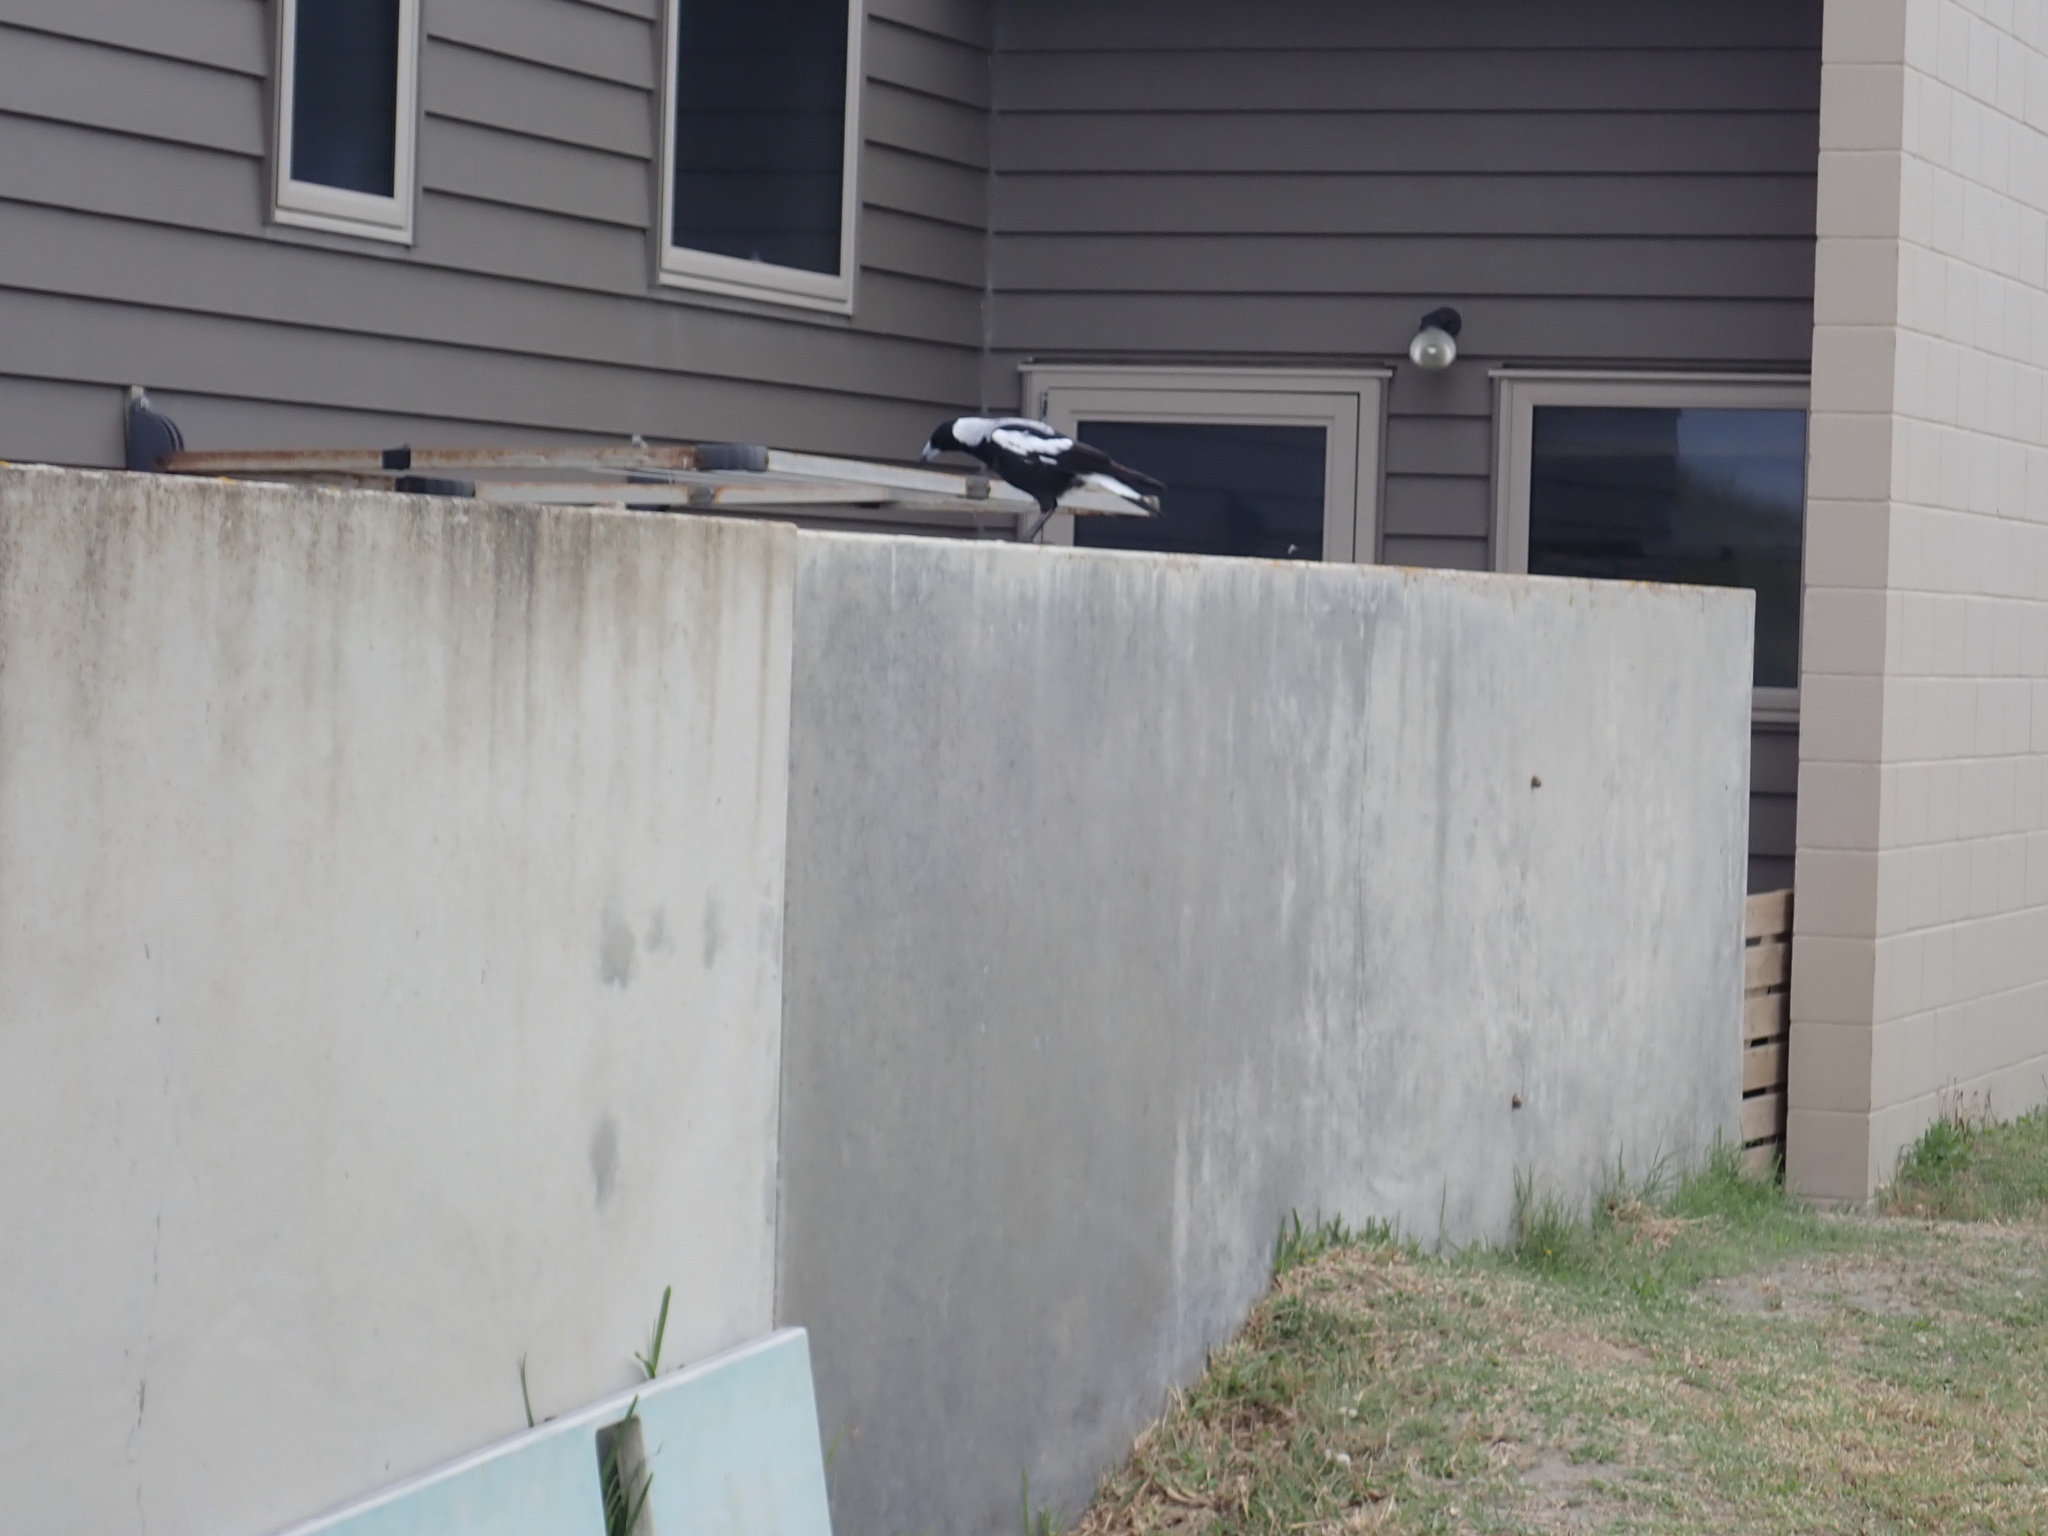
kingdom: Animalia
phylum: Chordata
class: Aves
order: Passeriformes
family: Cracticidae
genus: Gymnorhina
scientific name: Gymnorhina tibicen
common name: Australian magpie
